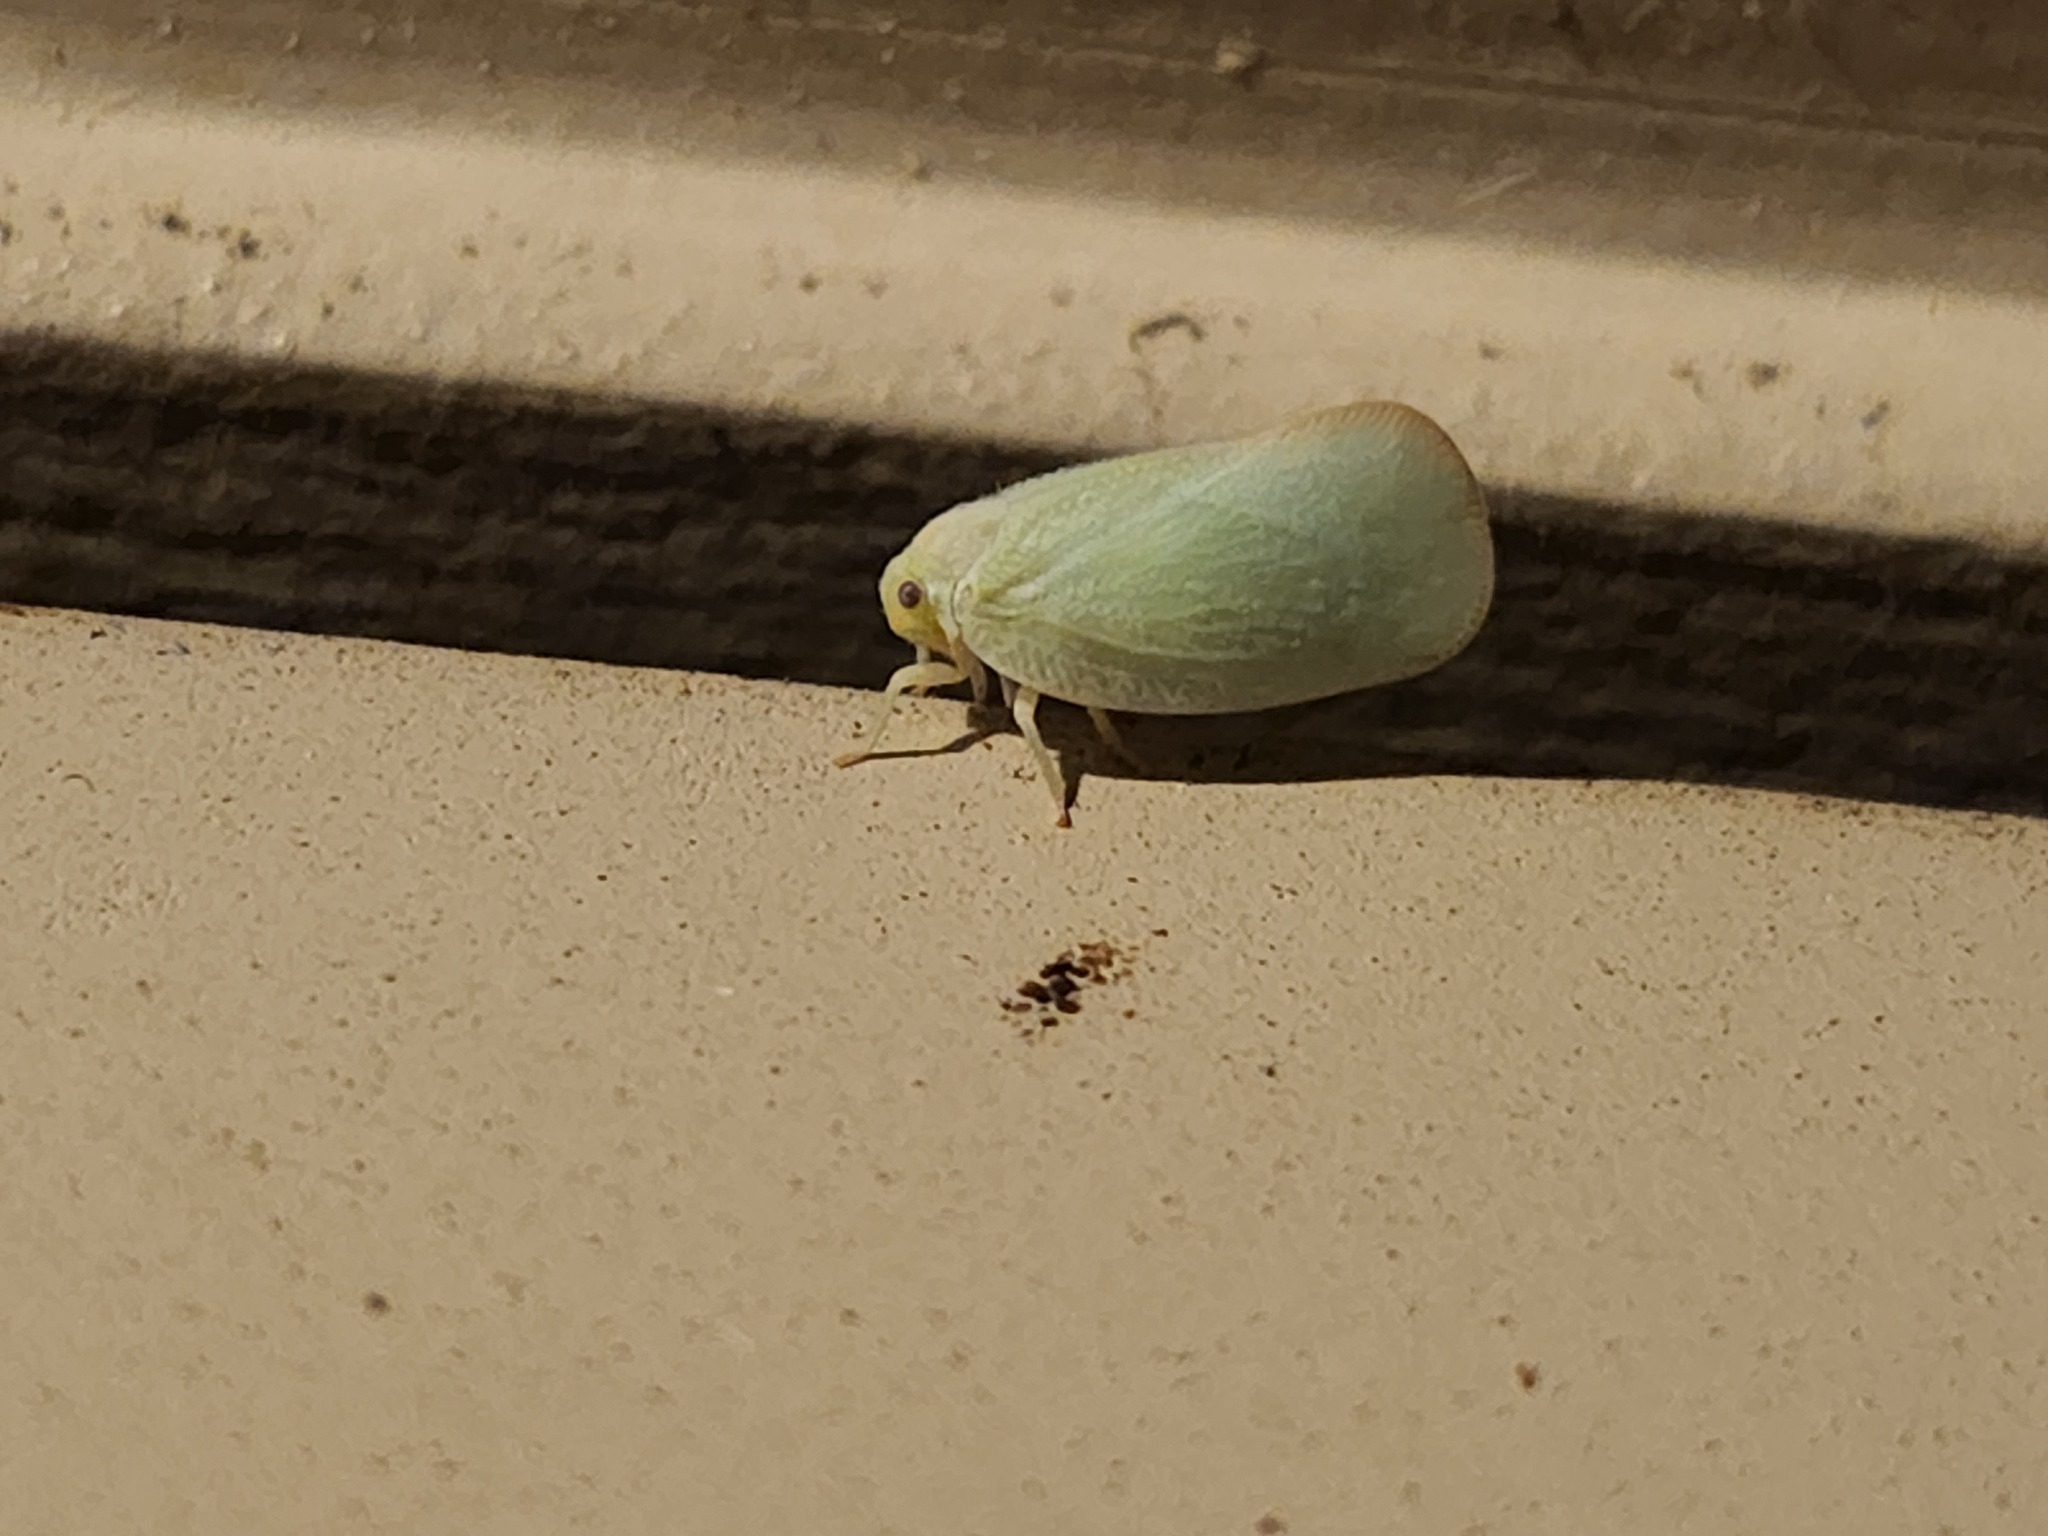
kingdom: Animalia
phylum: Arthropoda
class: Insecta
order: Hemiptera
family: Flatidae
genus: Ormenoides
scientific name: Ormenoides venusta
